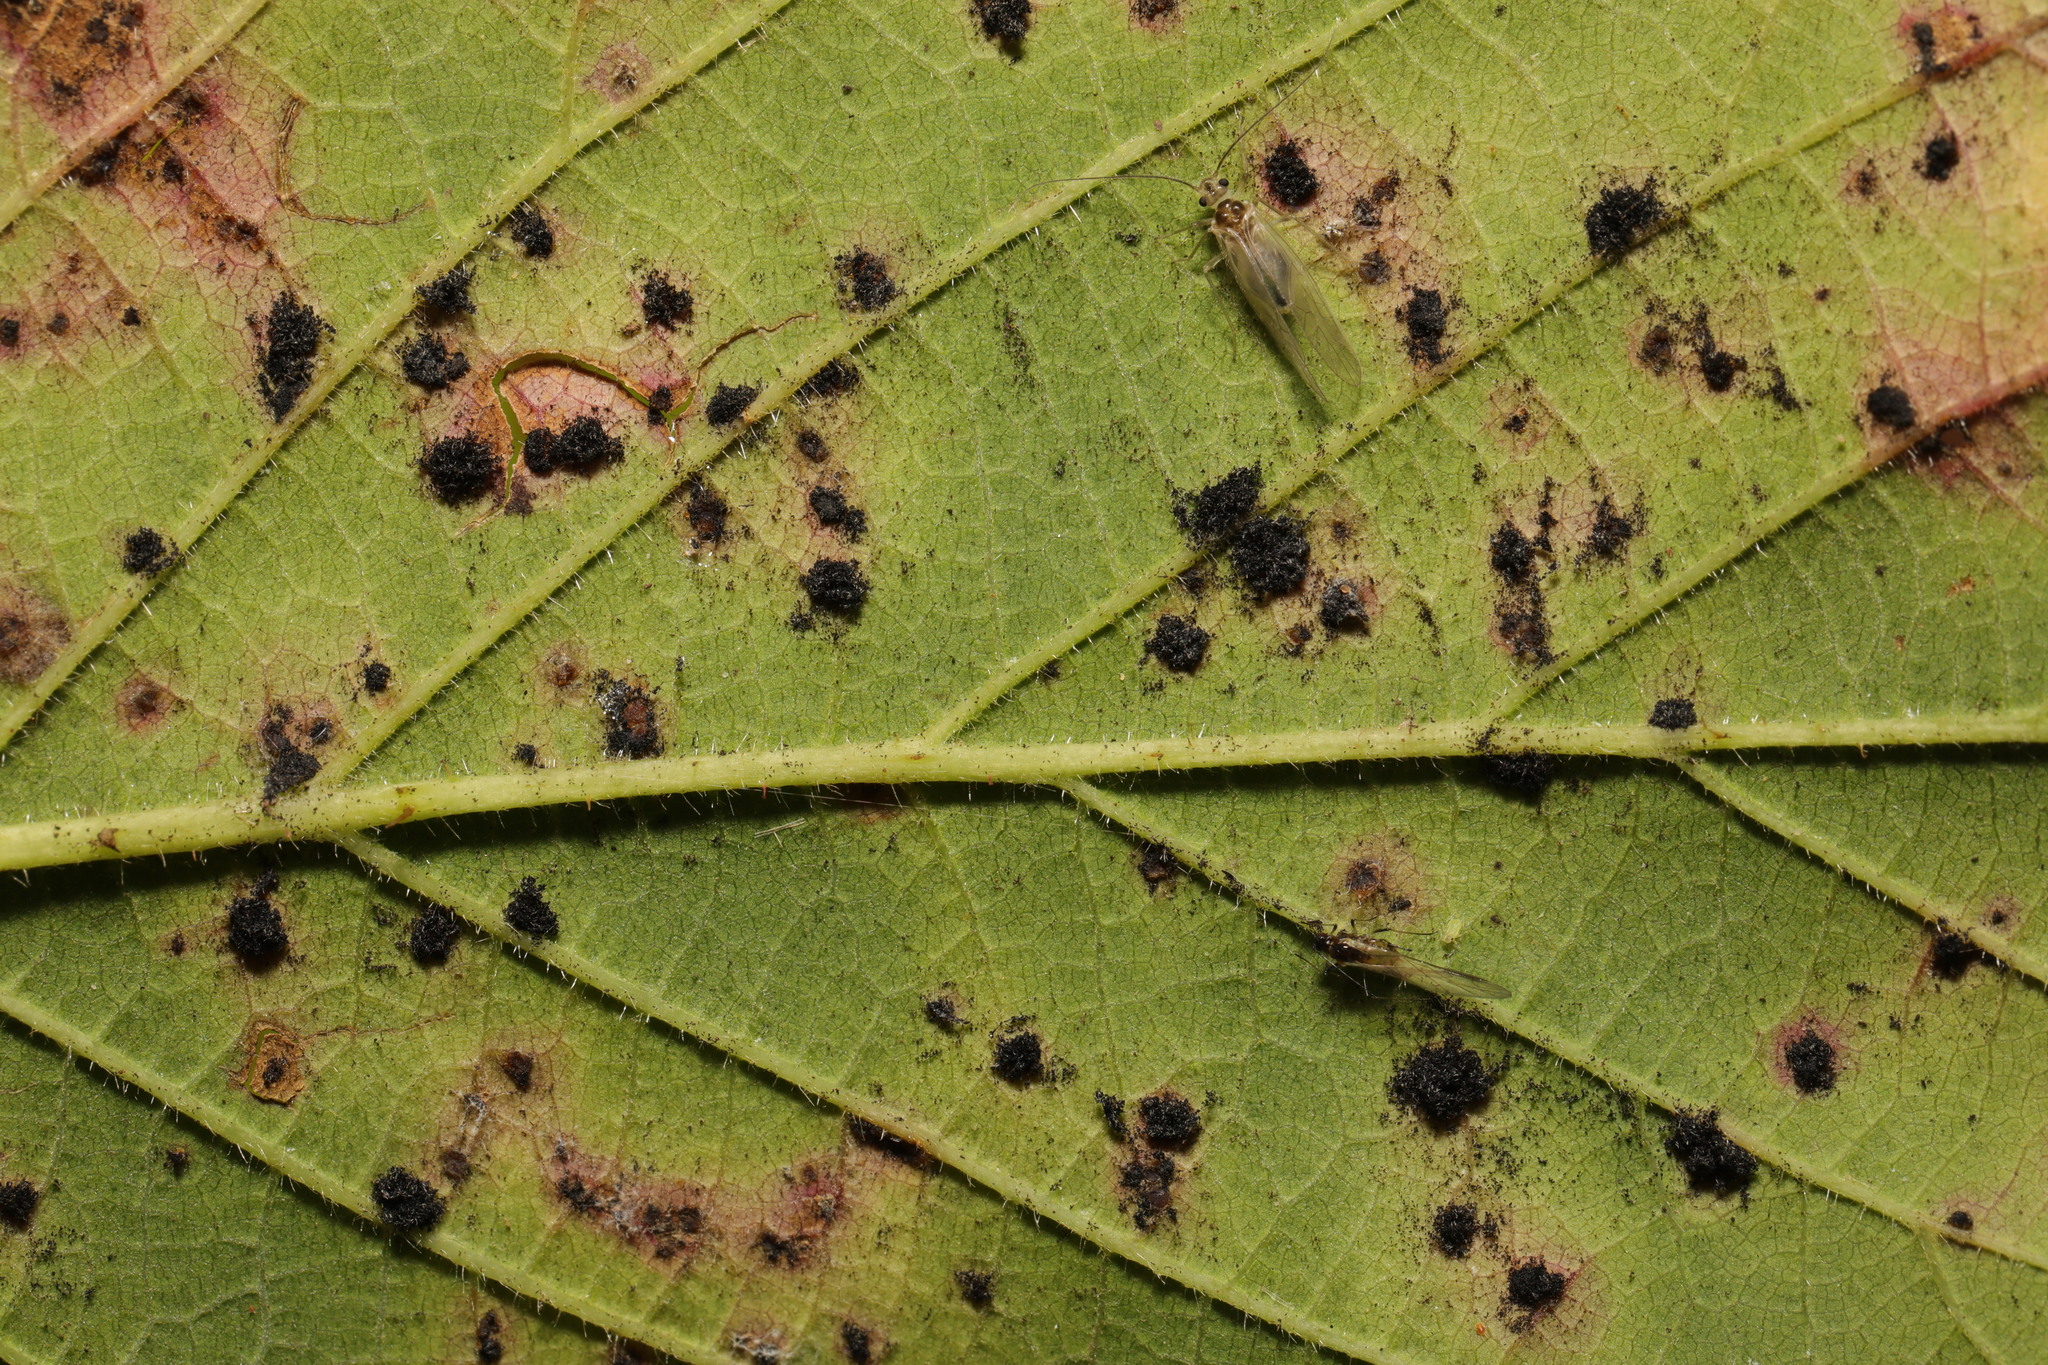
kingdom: Fungi
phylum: Basidiomycota
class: Pucciniomycetes
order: Pucciniales
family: Phragmidiaceae
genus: Phragmidium
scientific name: Phragmidium violaceum
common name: Violet bramble rust
